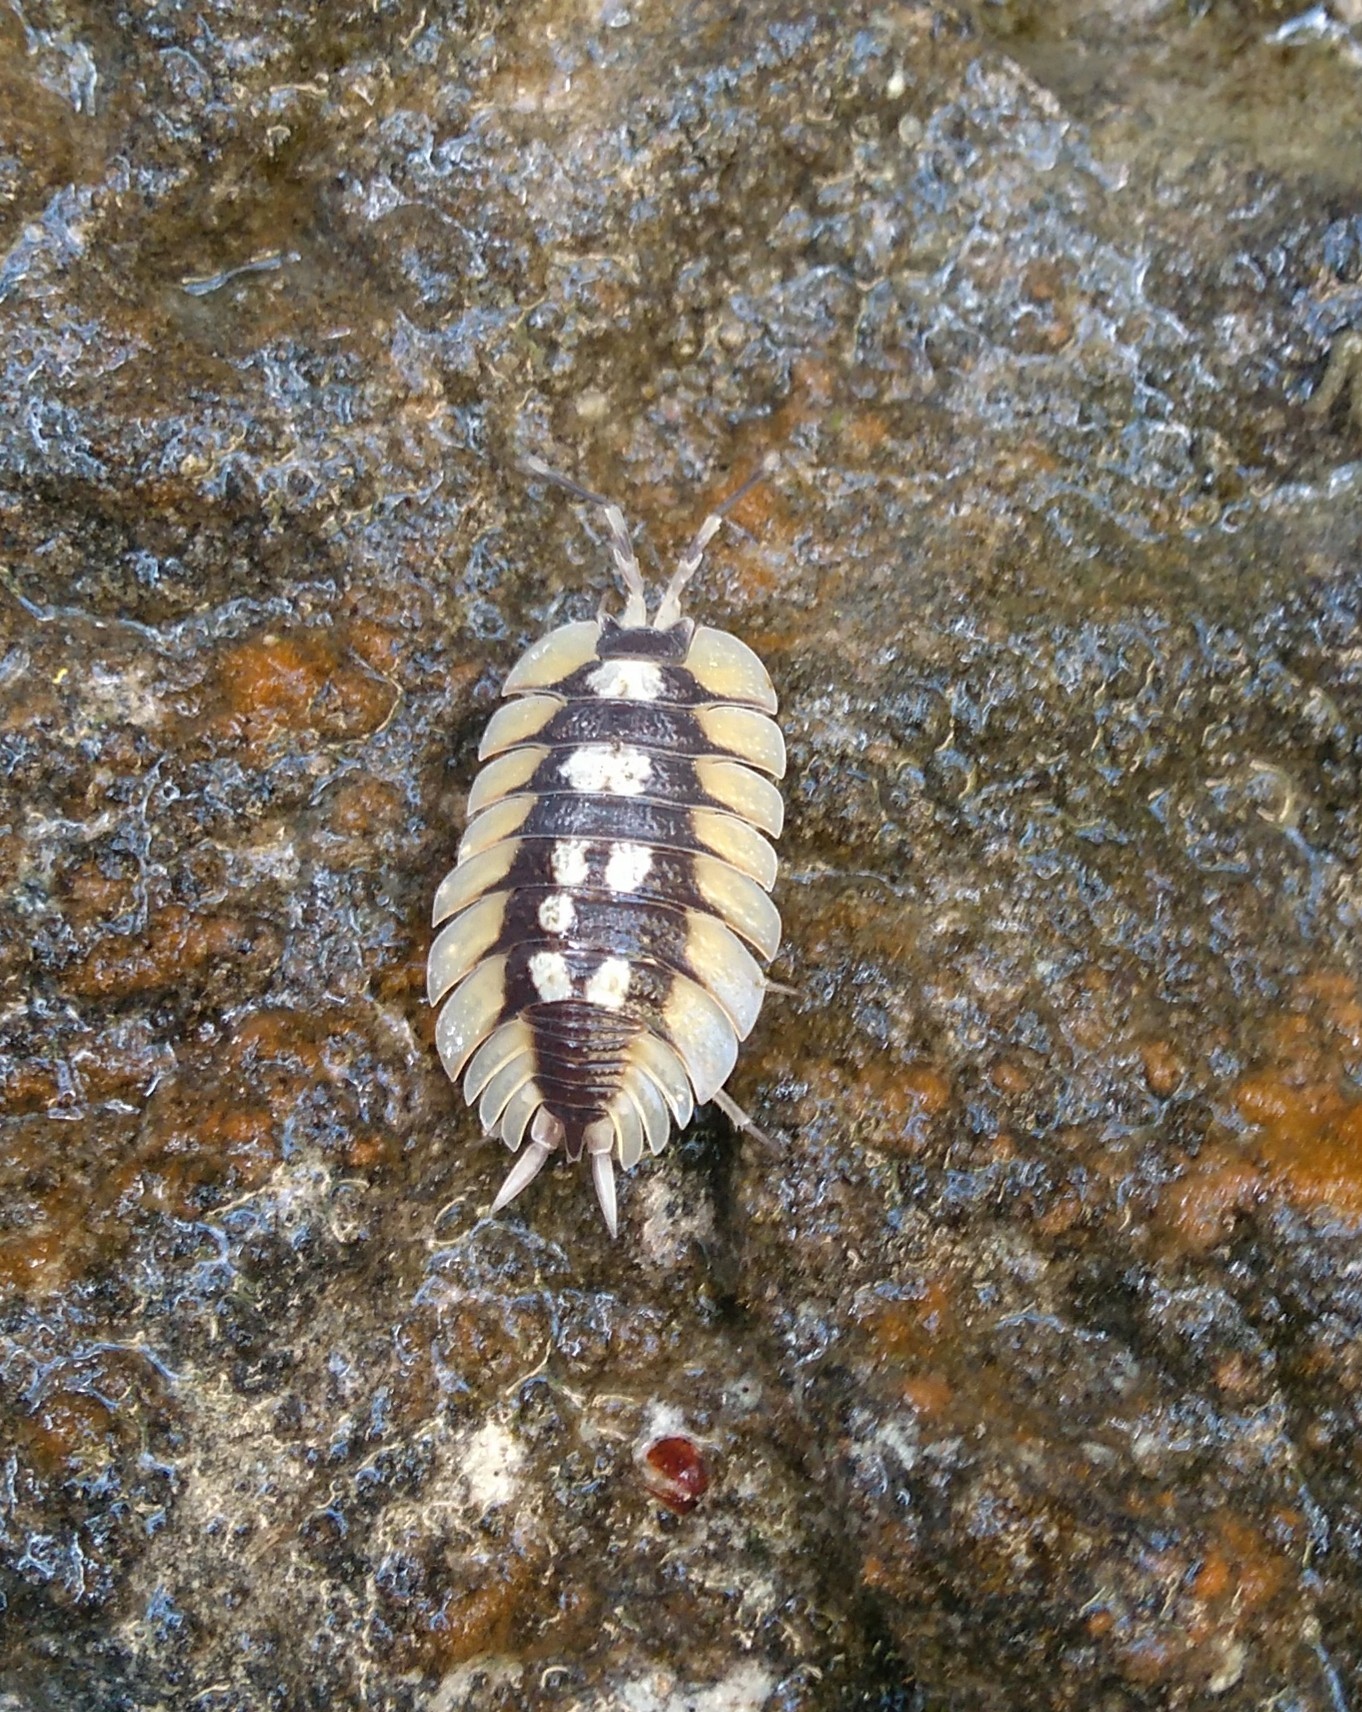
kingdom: Animalia
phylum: Arthropoda
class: Malacostraca
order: Isopoda
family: Porcellionidae
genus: Porcellio
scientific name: Porcellio expansus
